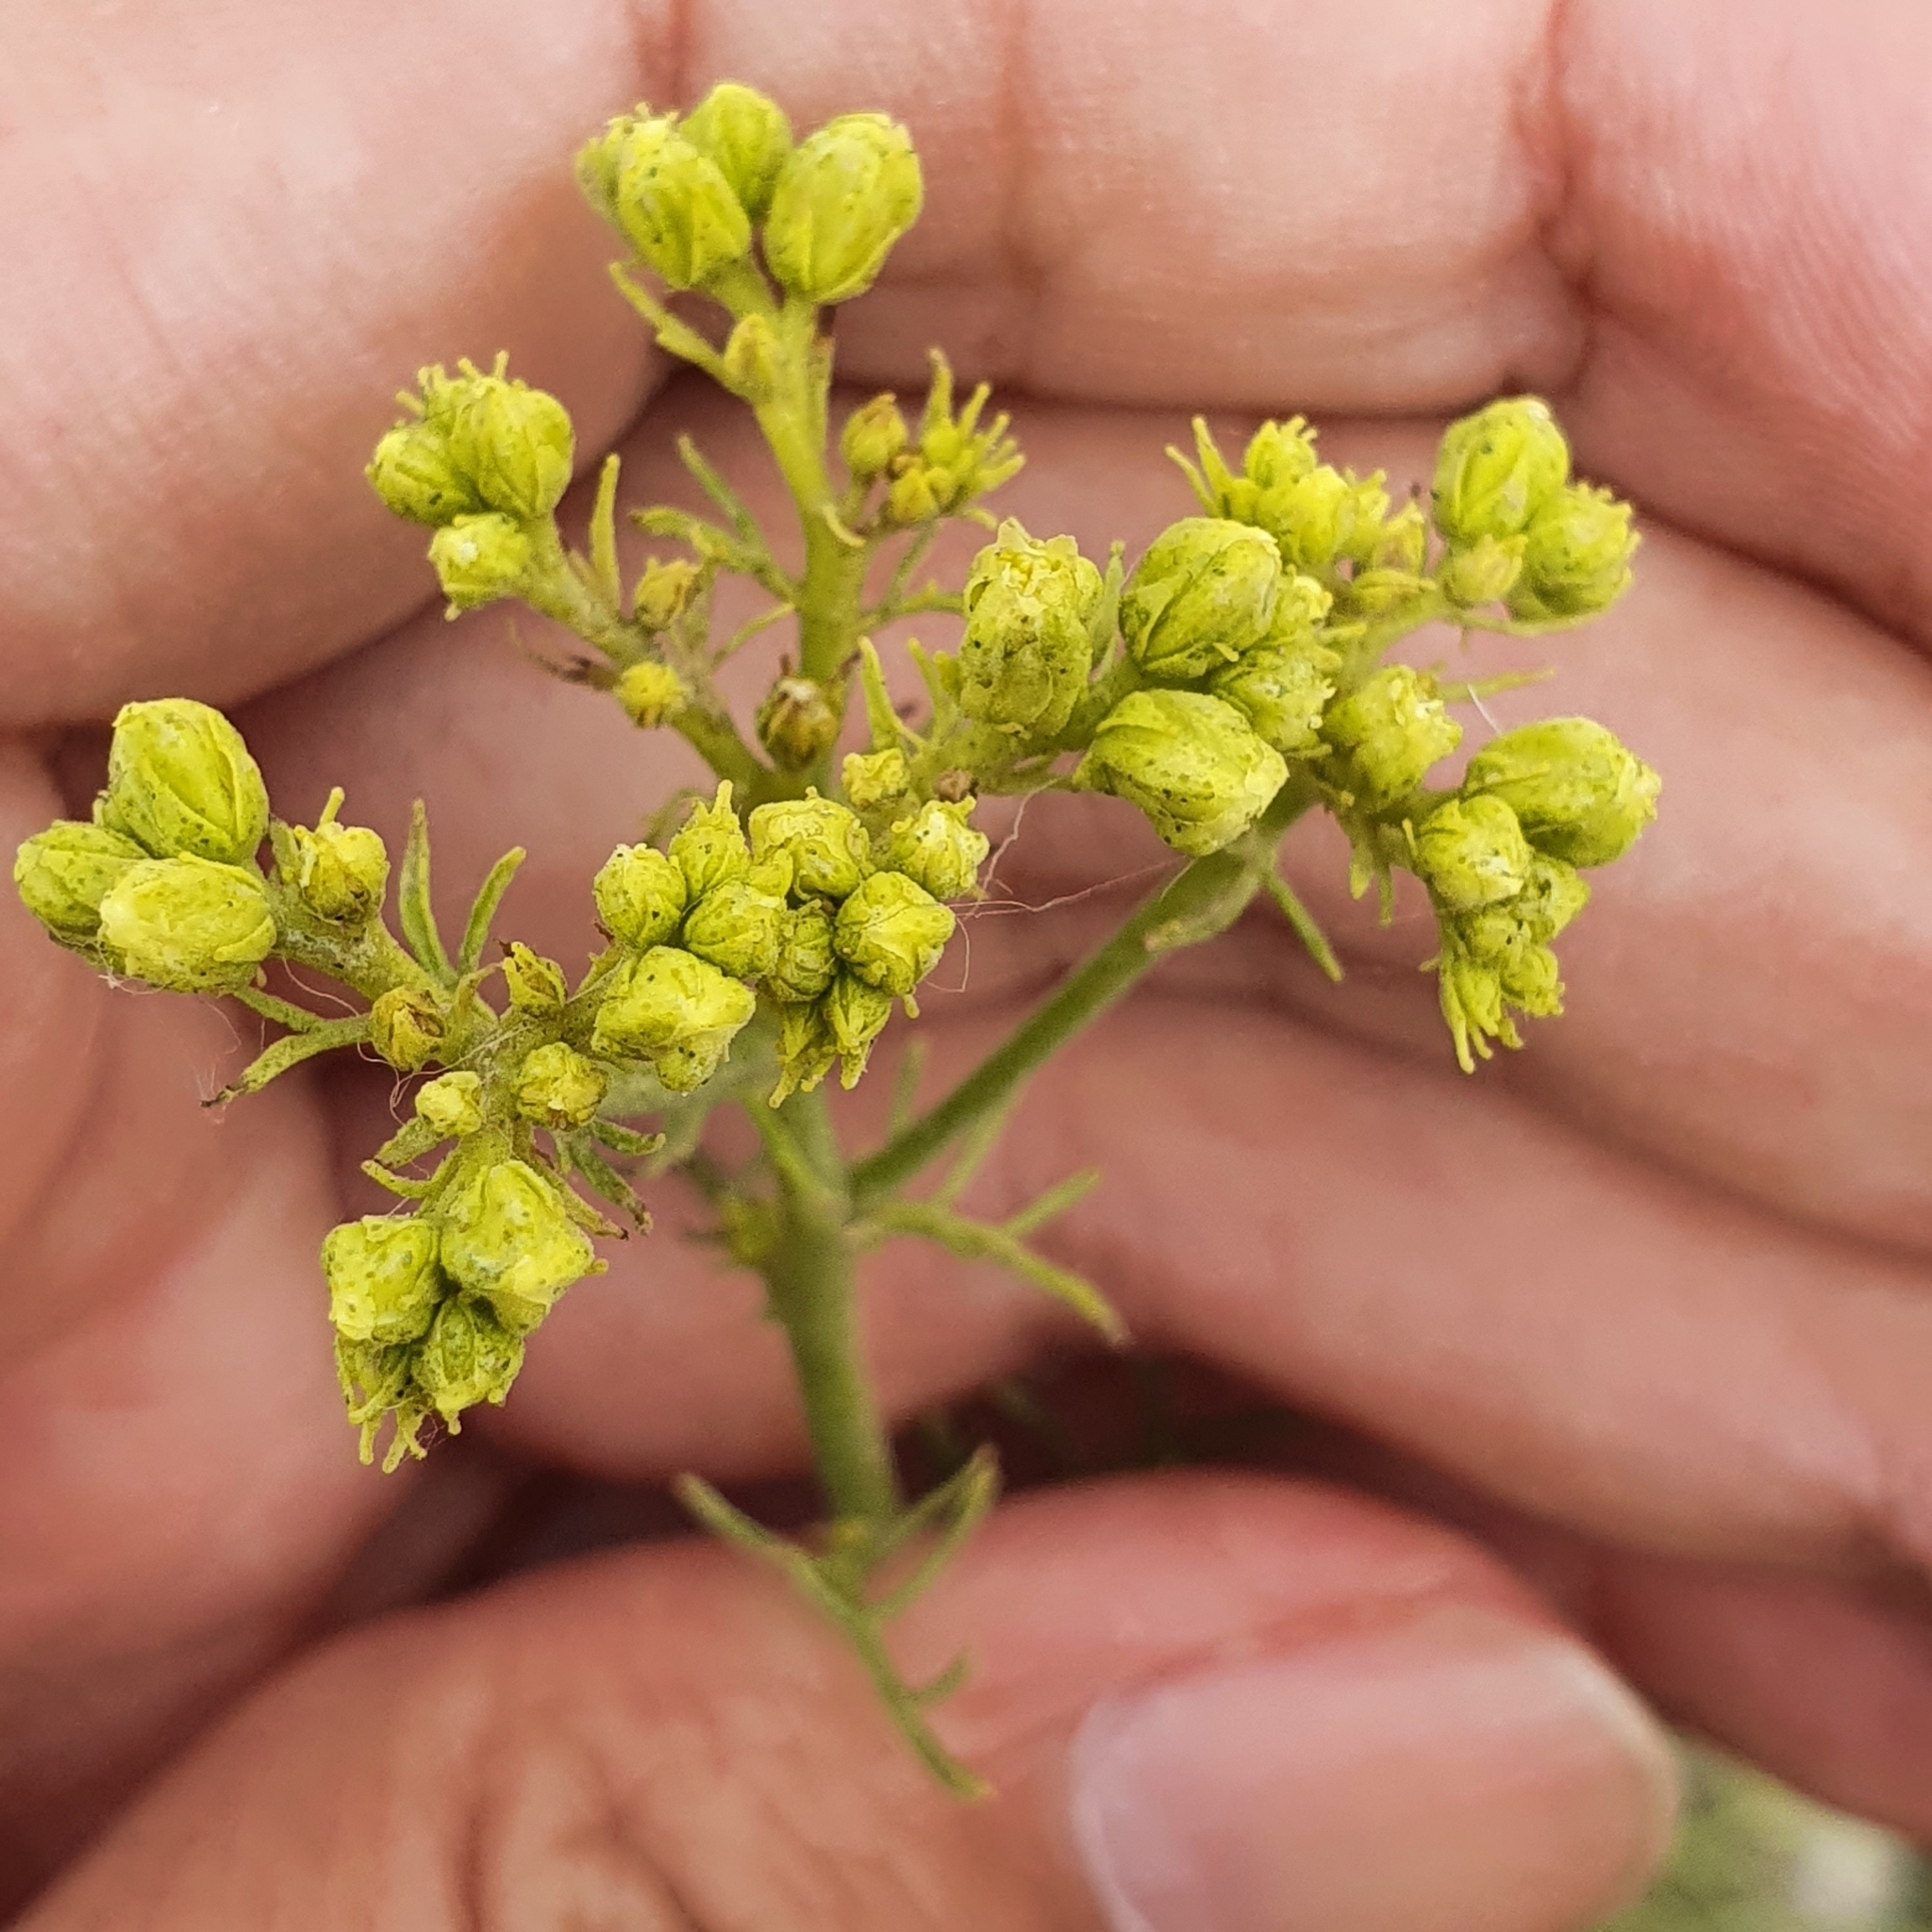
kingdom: Plantae
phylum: Tracheophyta
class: Magnoliopsida
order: Sapindales
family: Rutaceae
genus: Ruta
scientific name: Ruta montana
